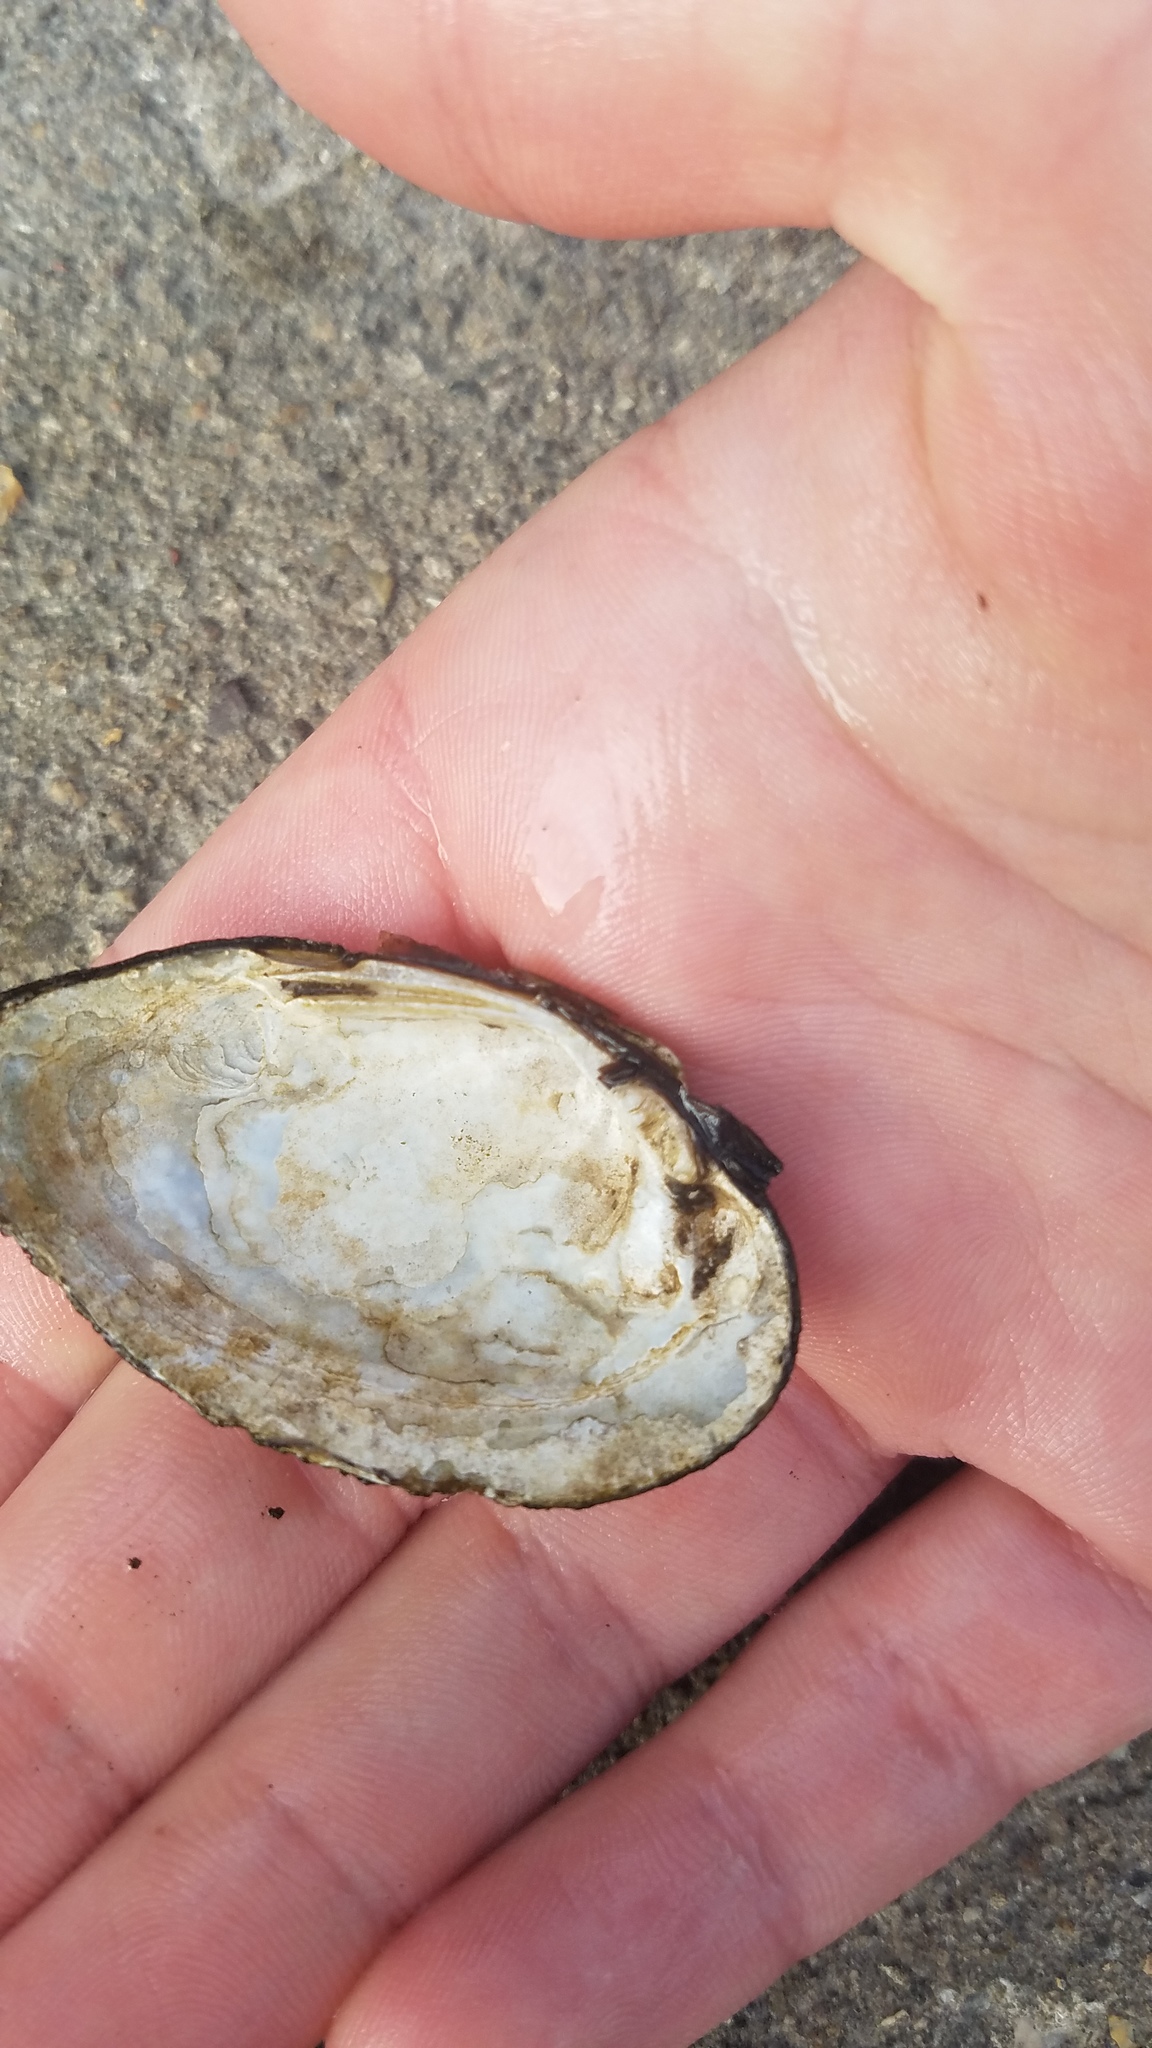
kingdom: Animalia
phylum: Mollusca
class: Bivalvia
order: Unionida
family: Unionidae
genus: Venustaconcha
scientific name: Venustaconcha ellipsiformis
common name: Ellipse
